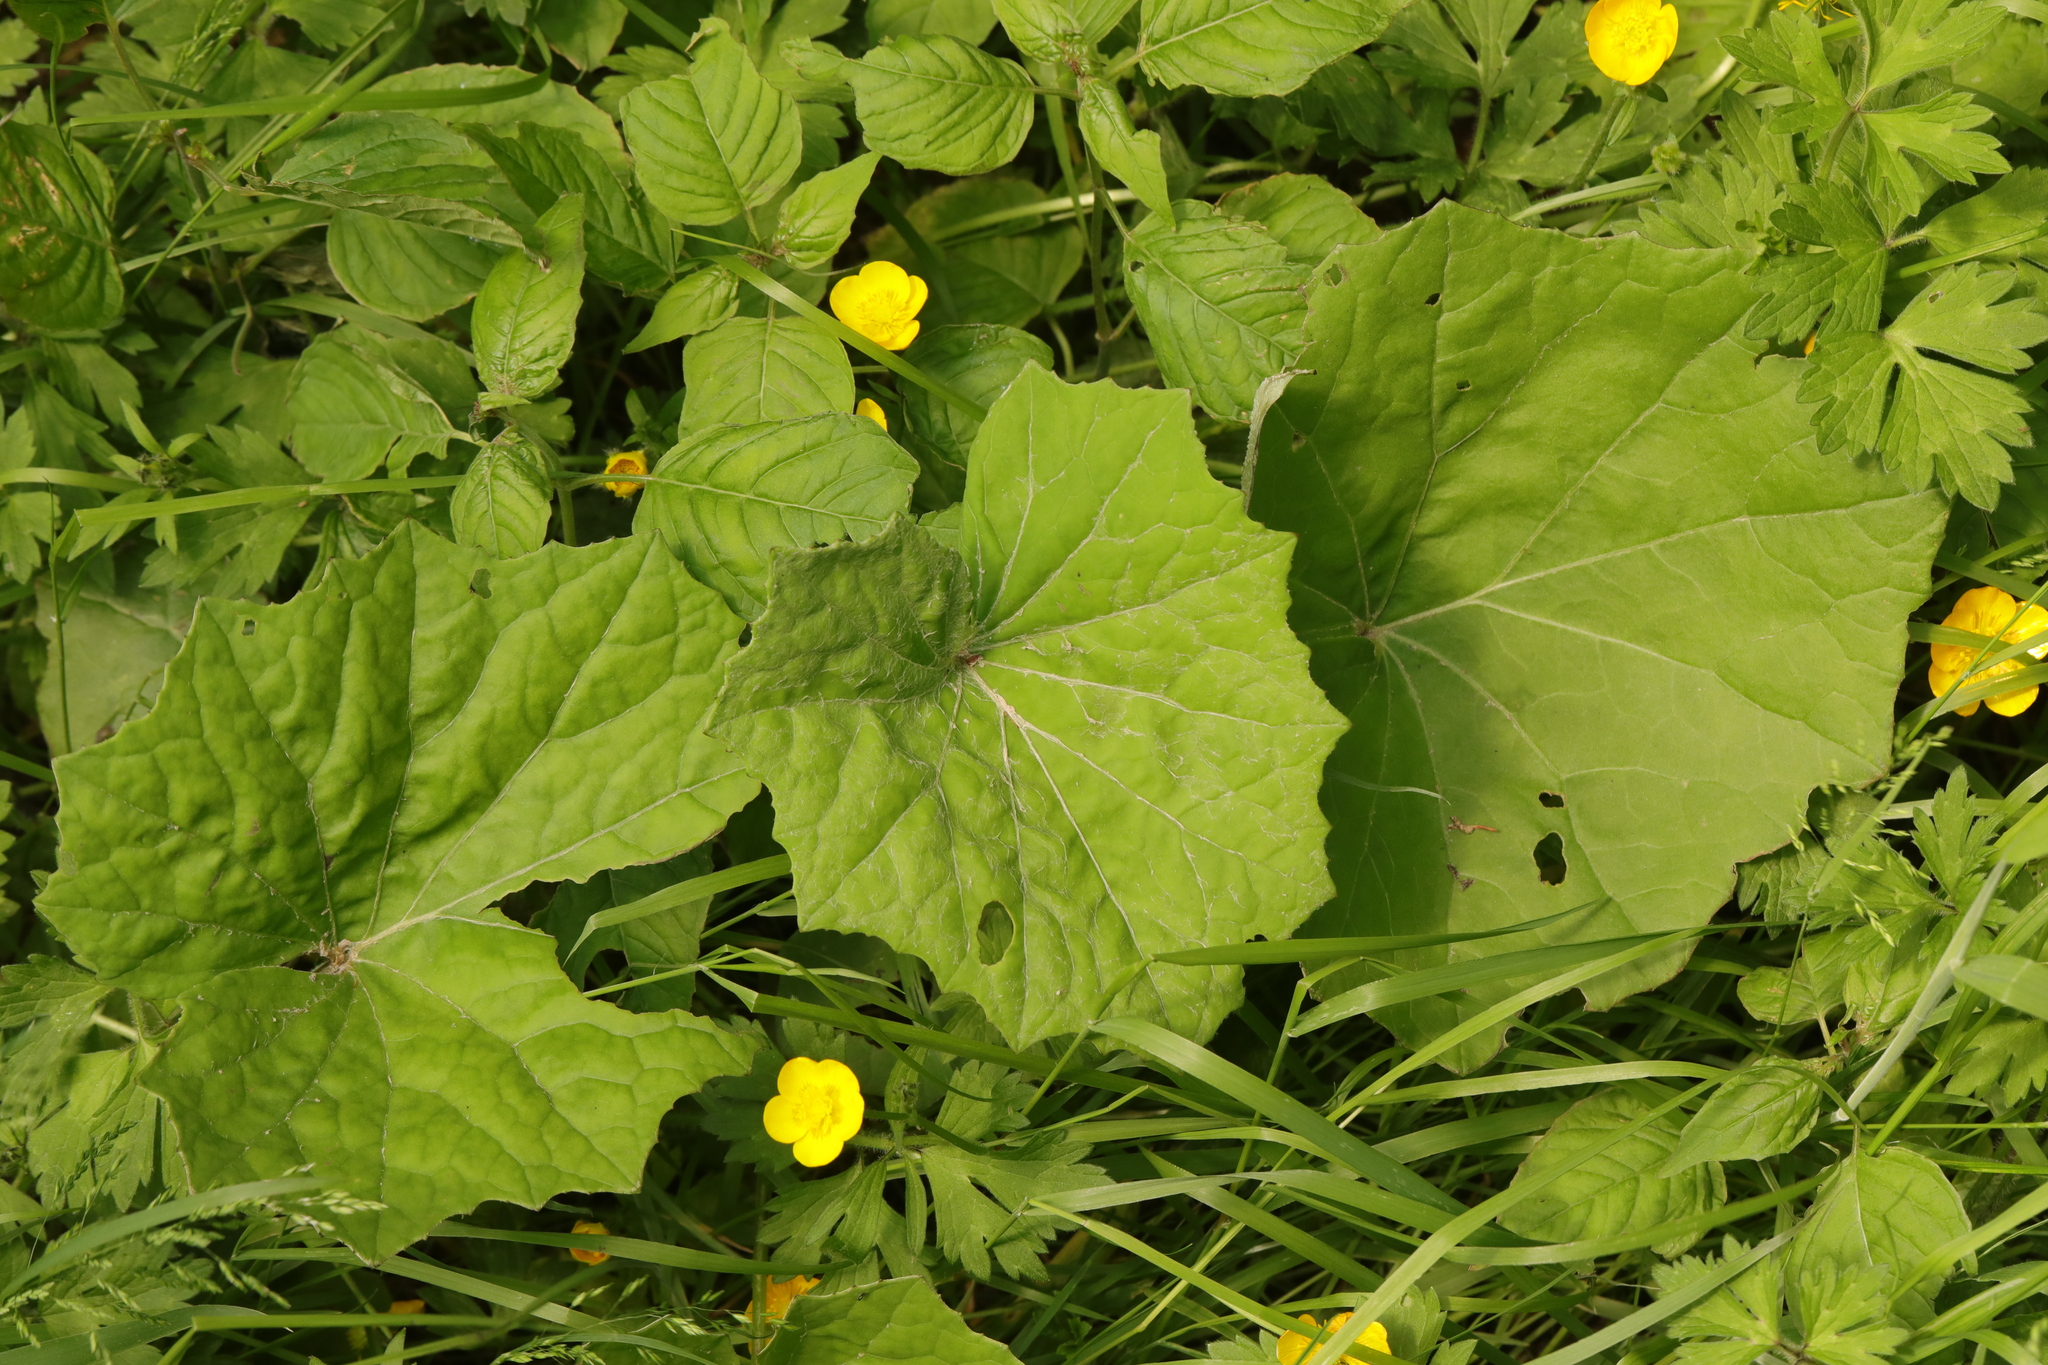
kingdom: Plantae
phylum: Tracheophyta
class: Magnoliopsida
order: Asterales
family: Asteraceae
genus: Tussilago
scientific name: Tussilago farfara
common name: Coltsfoot
